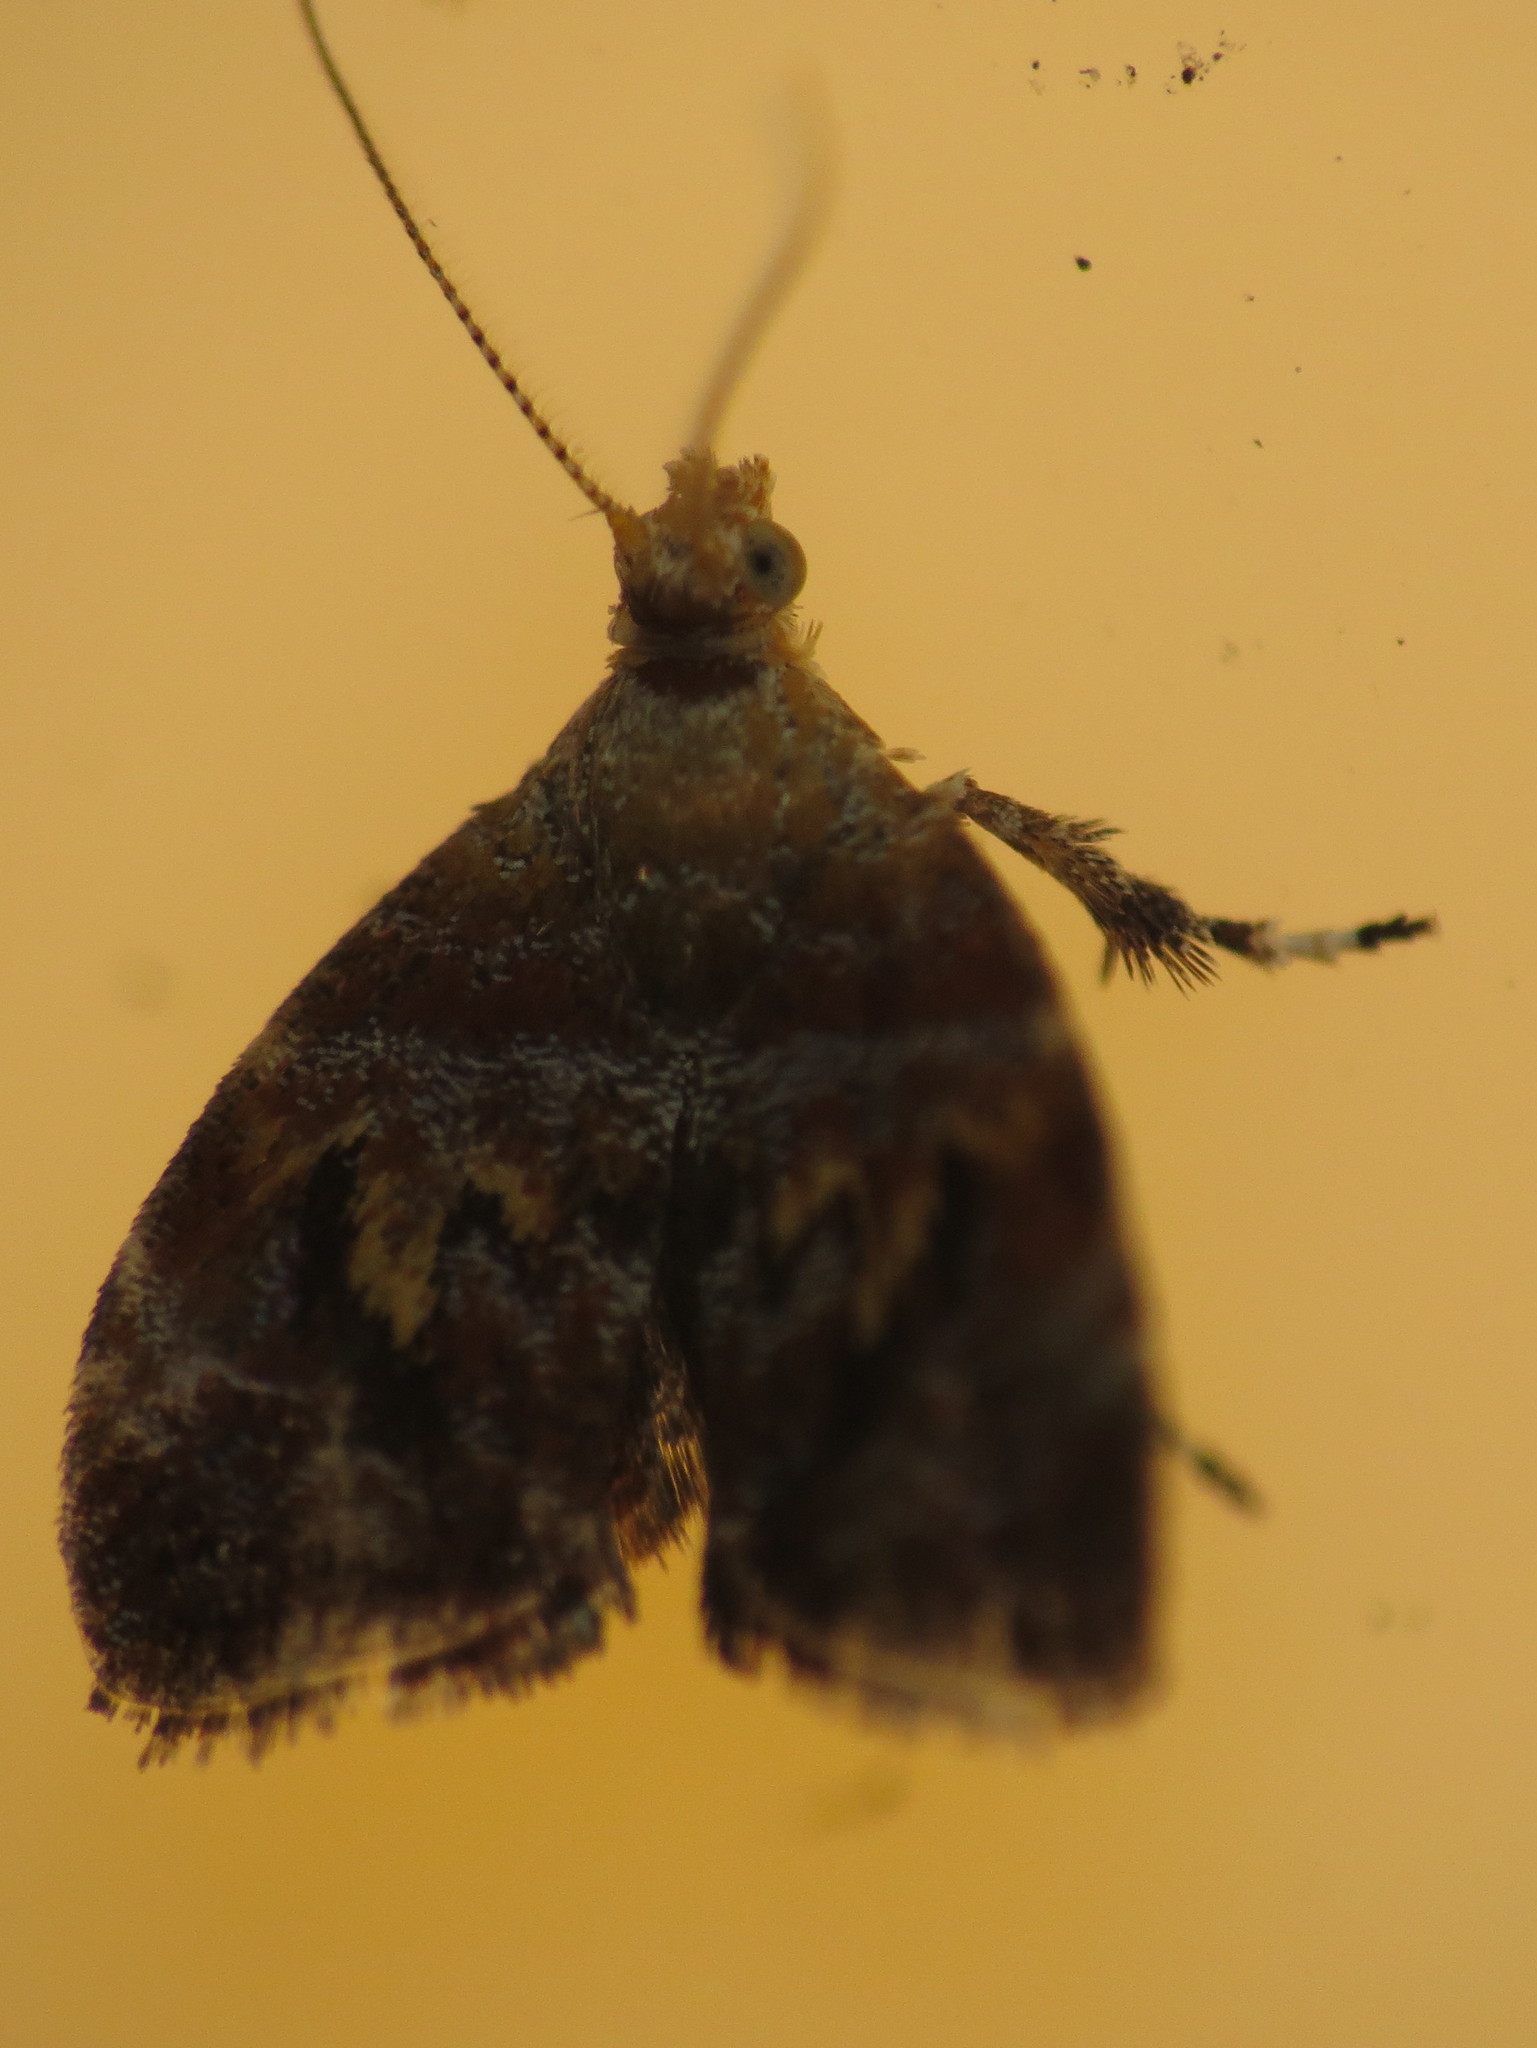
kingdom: Animalia
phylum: Arthropoda
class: Insecta
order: Lepidoptera
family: Choreutidae
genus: Choreutis
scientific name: Choreutis sexfasciella
